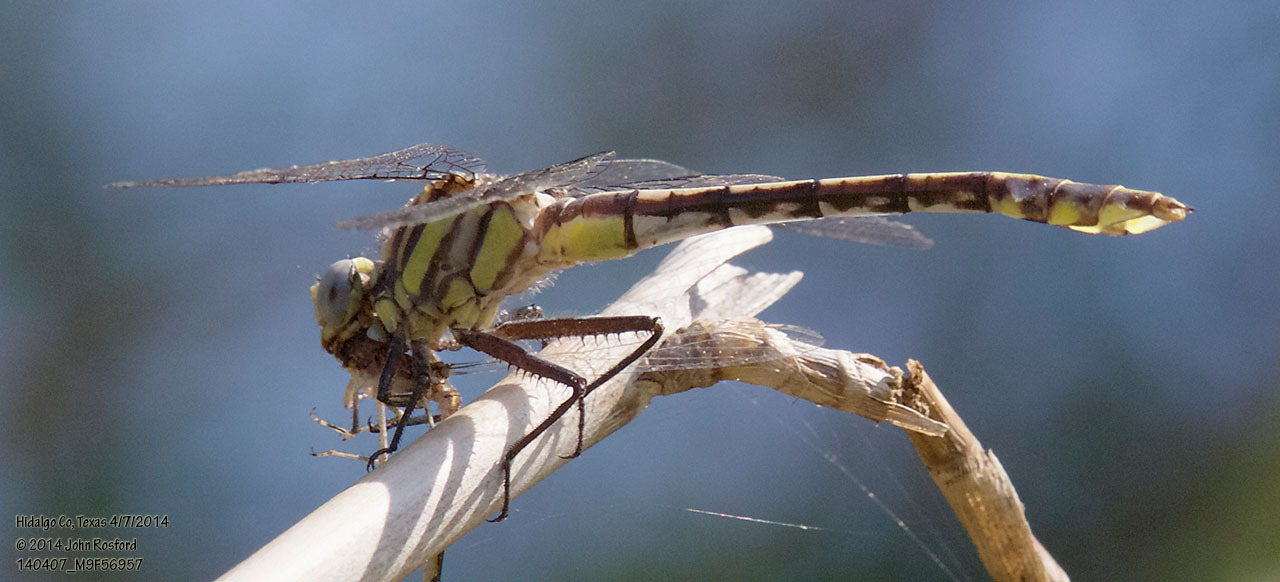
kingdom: Animalia
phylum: Arthropoda
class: Insecta
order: Odonata
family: Gomphidae
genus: Gomphurus
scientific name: Gomphurus gonzalezi
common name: Tamaulipan clubtail
